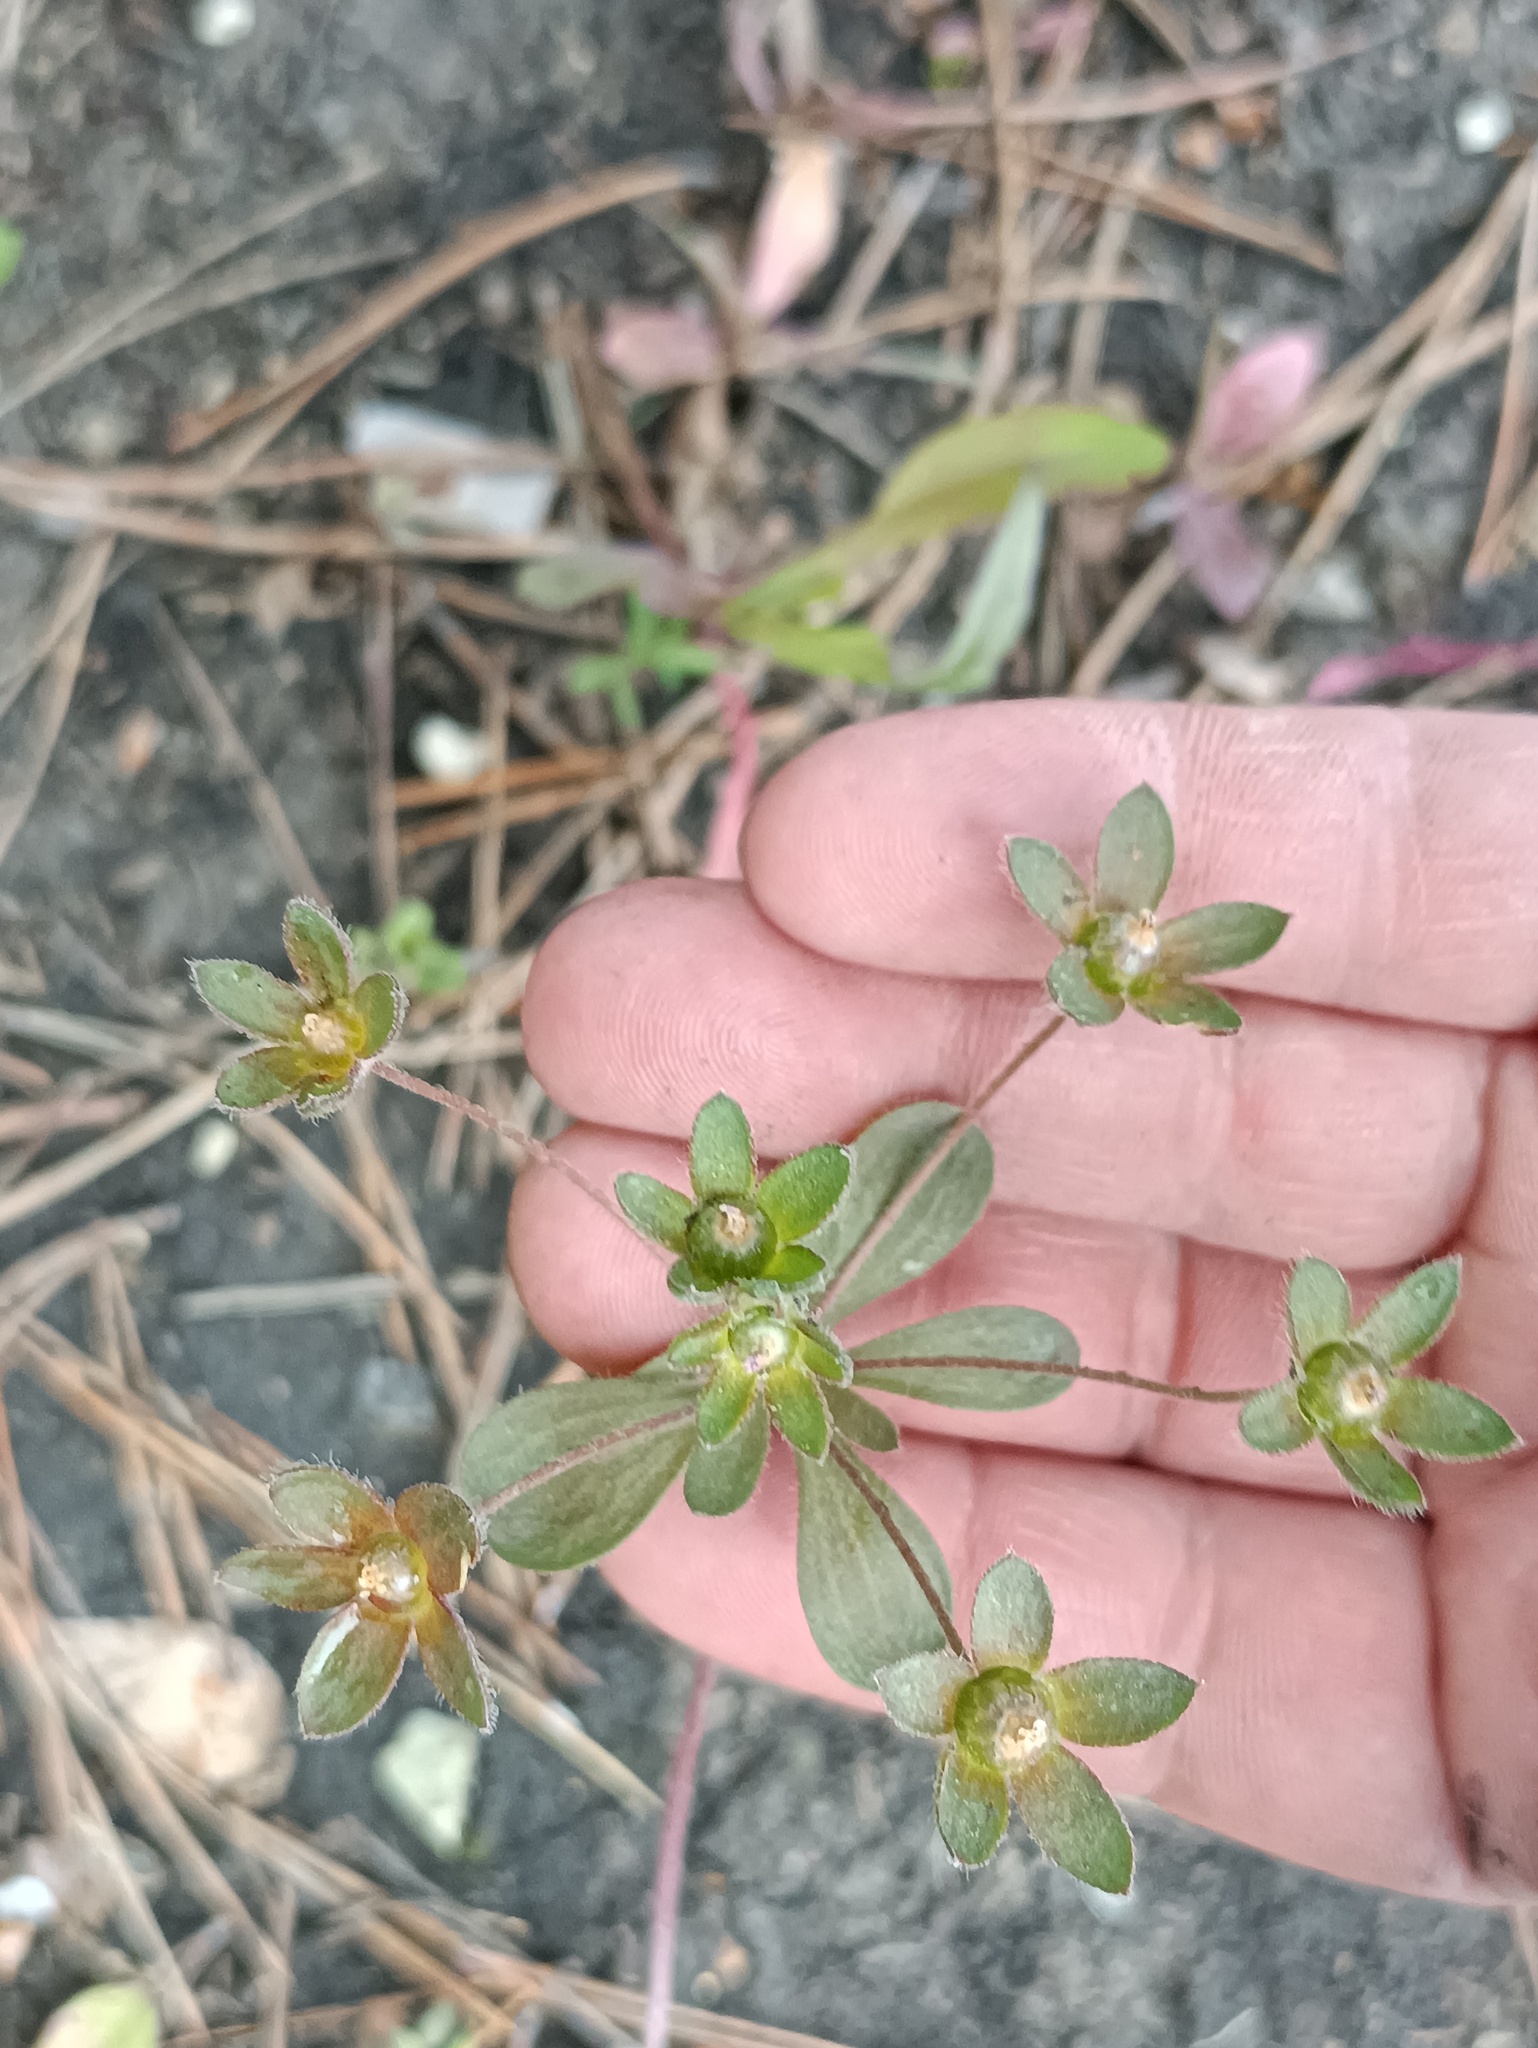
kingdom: Plantae
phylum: Tracheophyta
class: Magnoliopsida
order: Ericales
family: Primulaceae
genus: Androsace
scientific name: Androsace maxima
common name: Annual androsace
